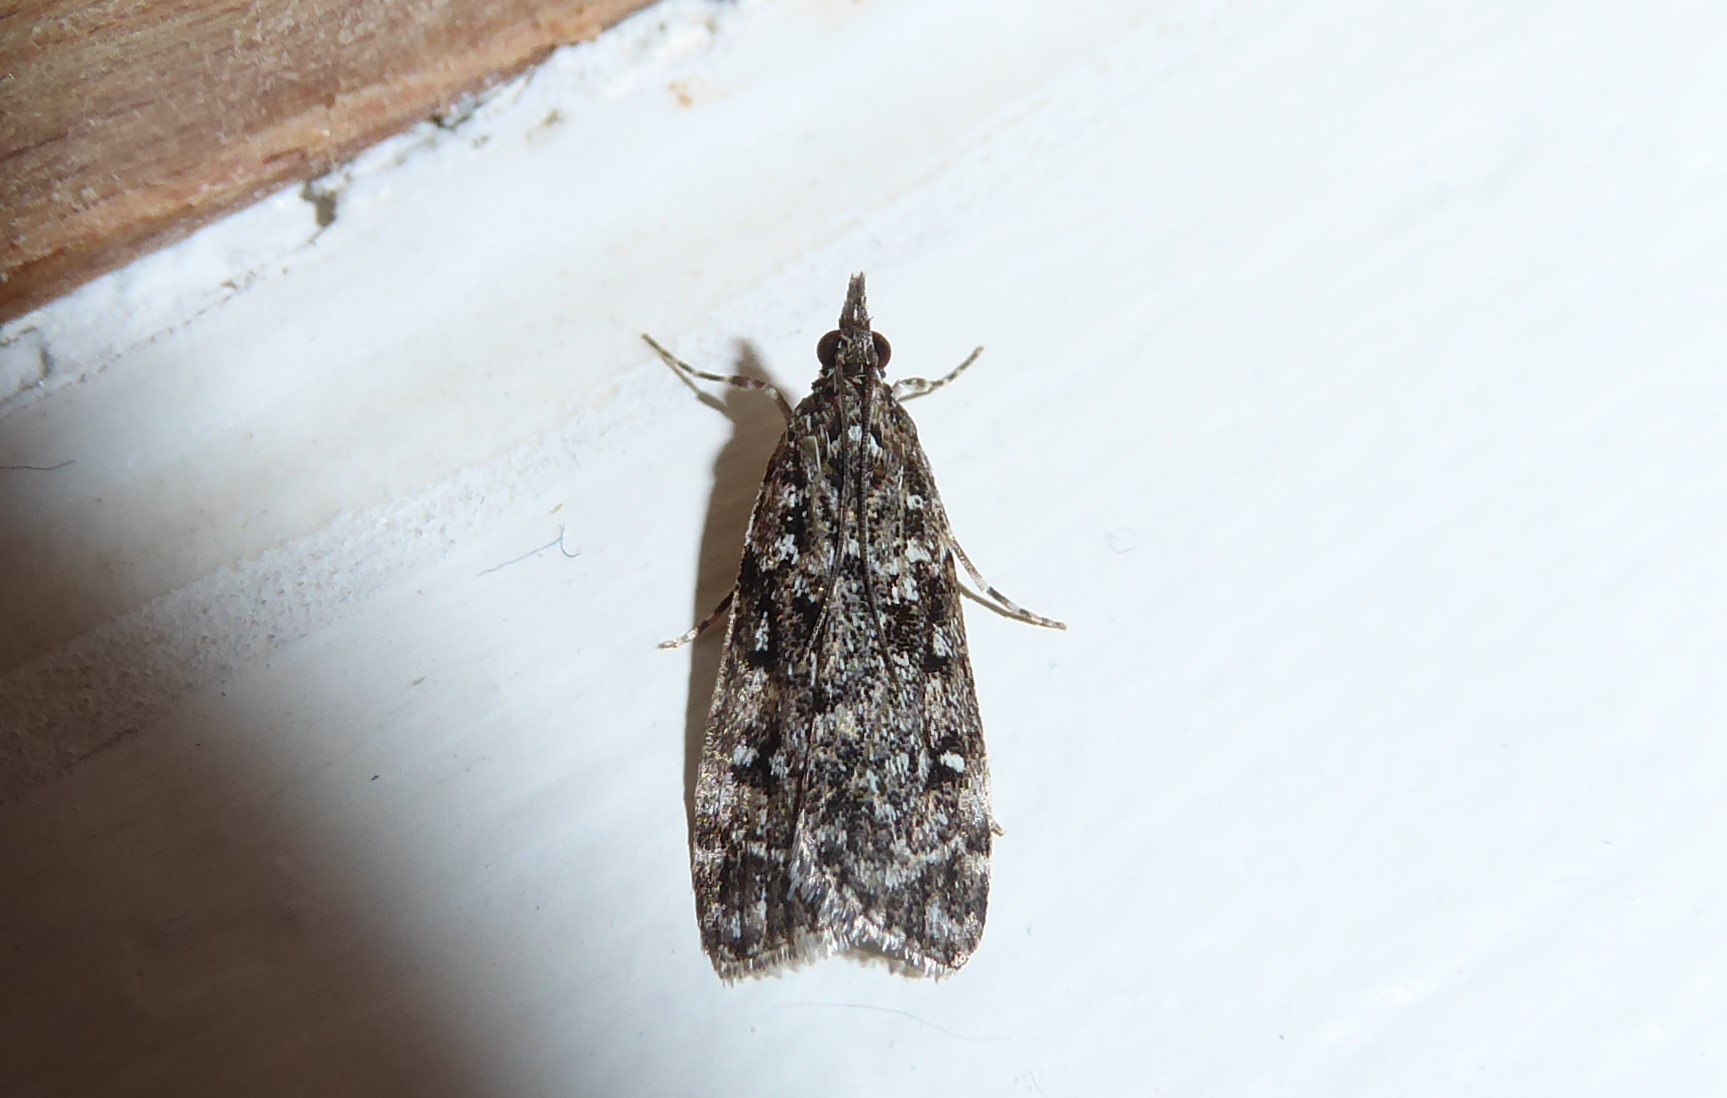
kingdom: Animalia
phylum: Arthropoda
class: Insecta
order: Lepidoptera
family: Crambidae
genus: Eudonia
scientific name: Eudonia philerga
